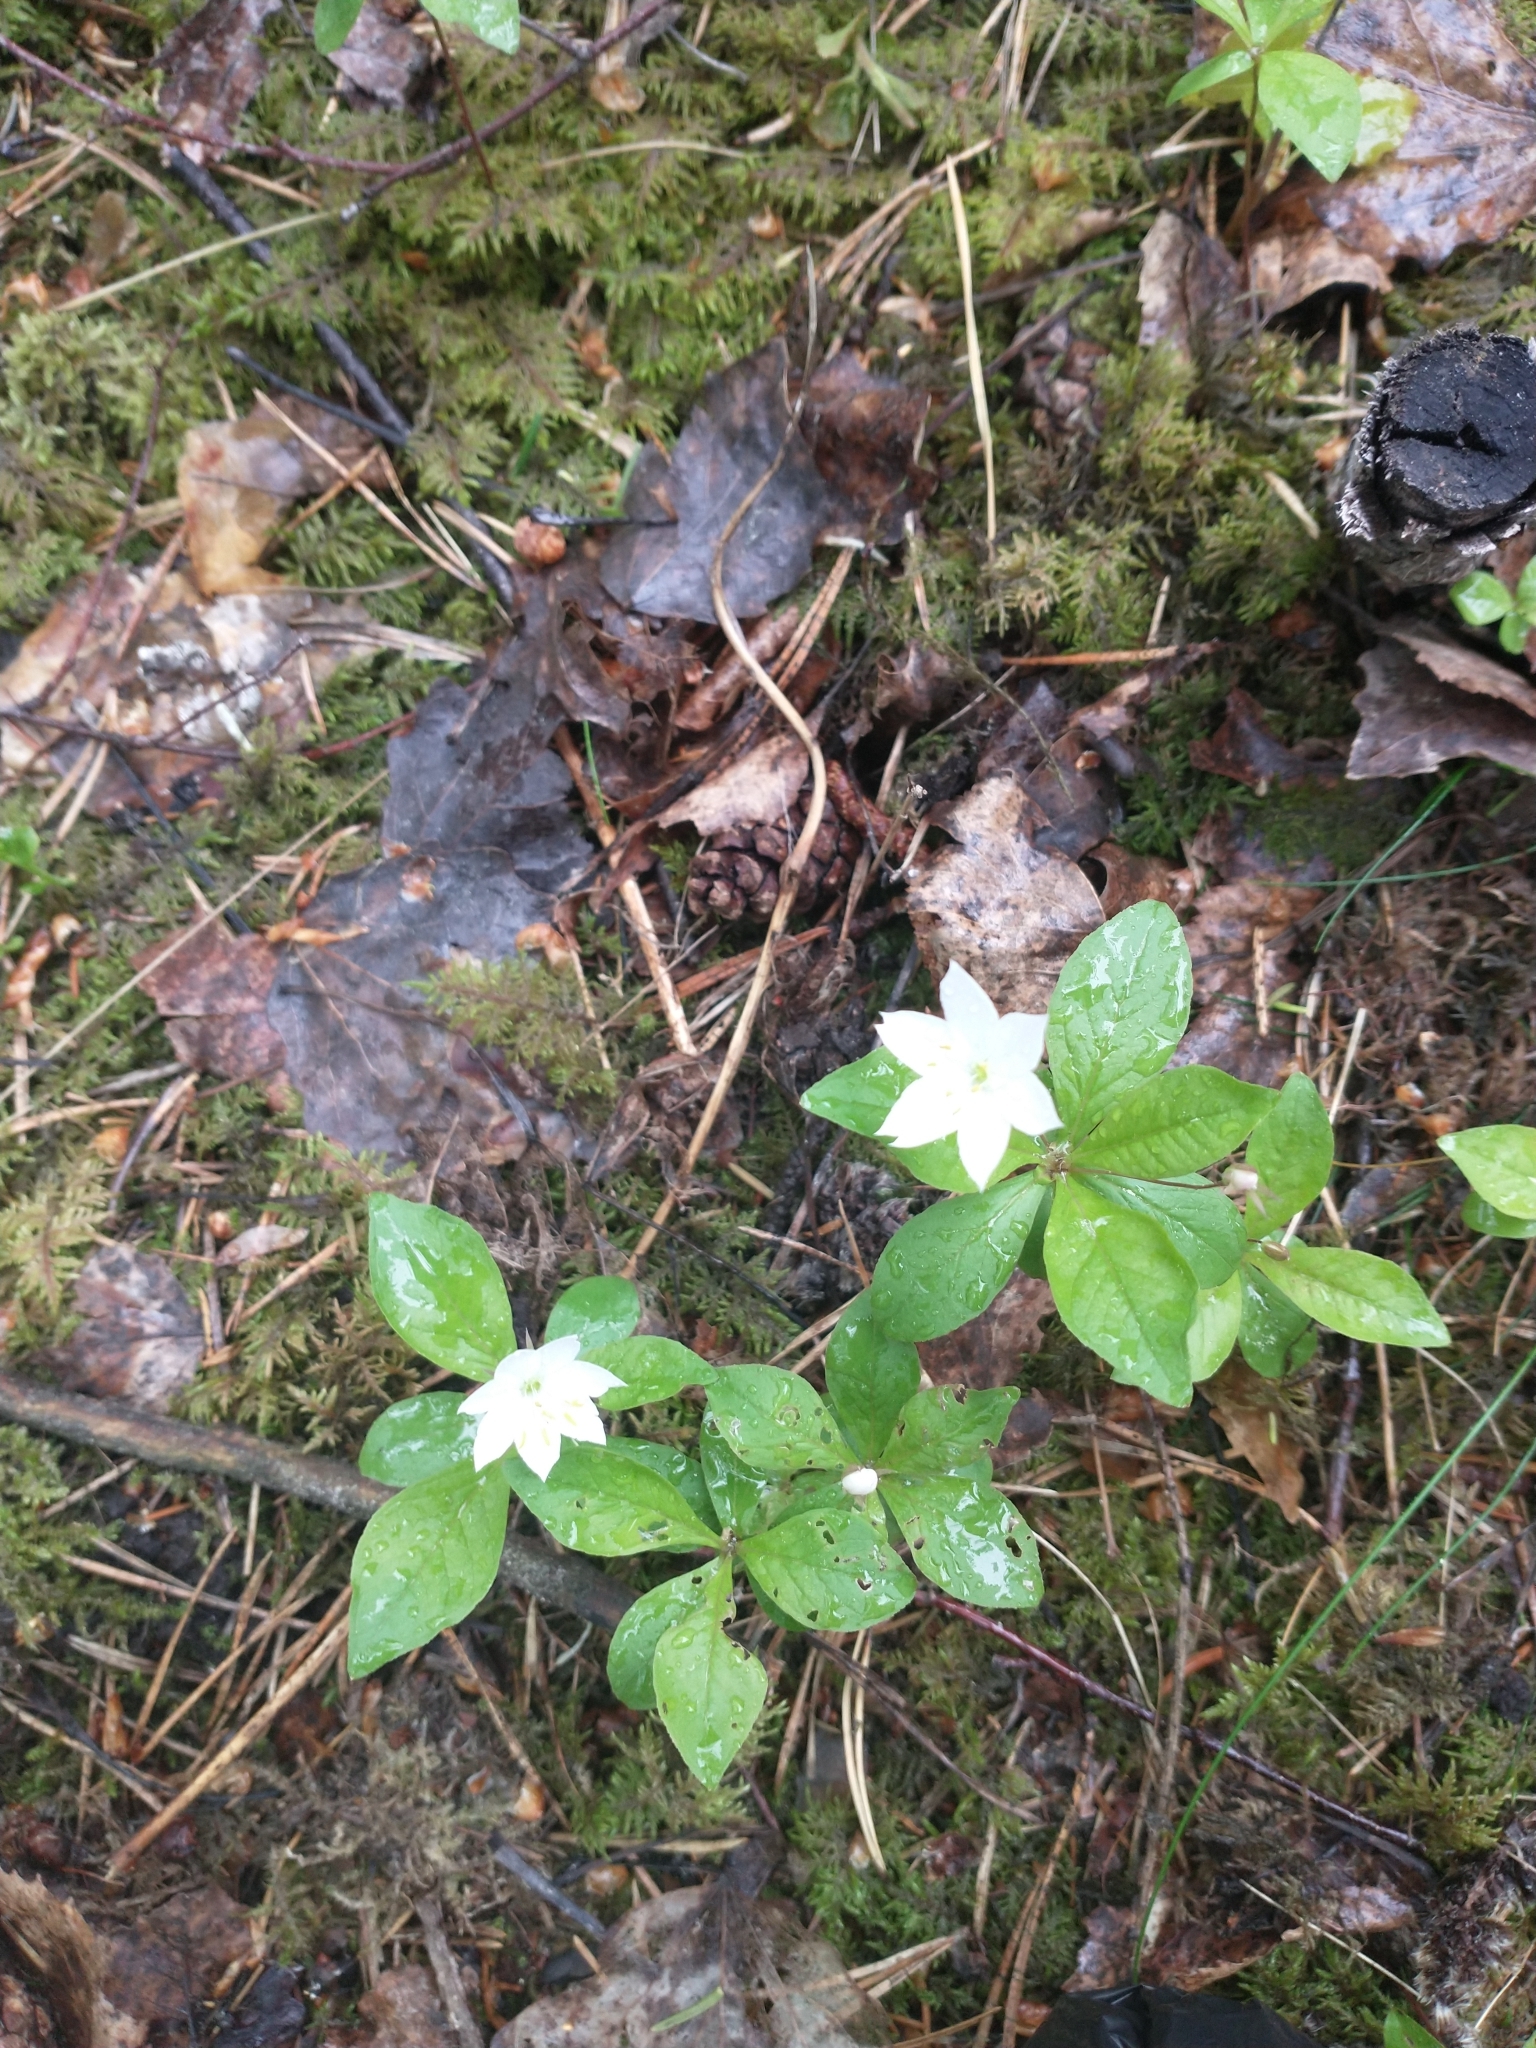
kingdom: Plantae
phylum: Tracheophyta
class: Magnoliopsida
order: Ericales
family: Primulaceae
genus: Lysimachia
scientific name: Lysimachia europaea
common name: Arctic starflower
